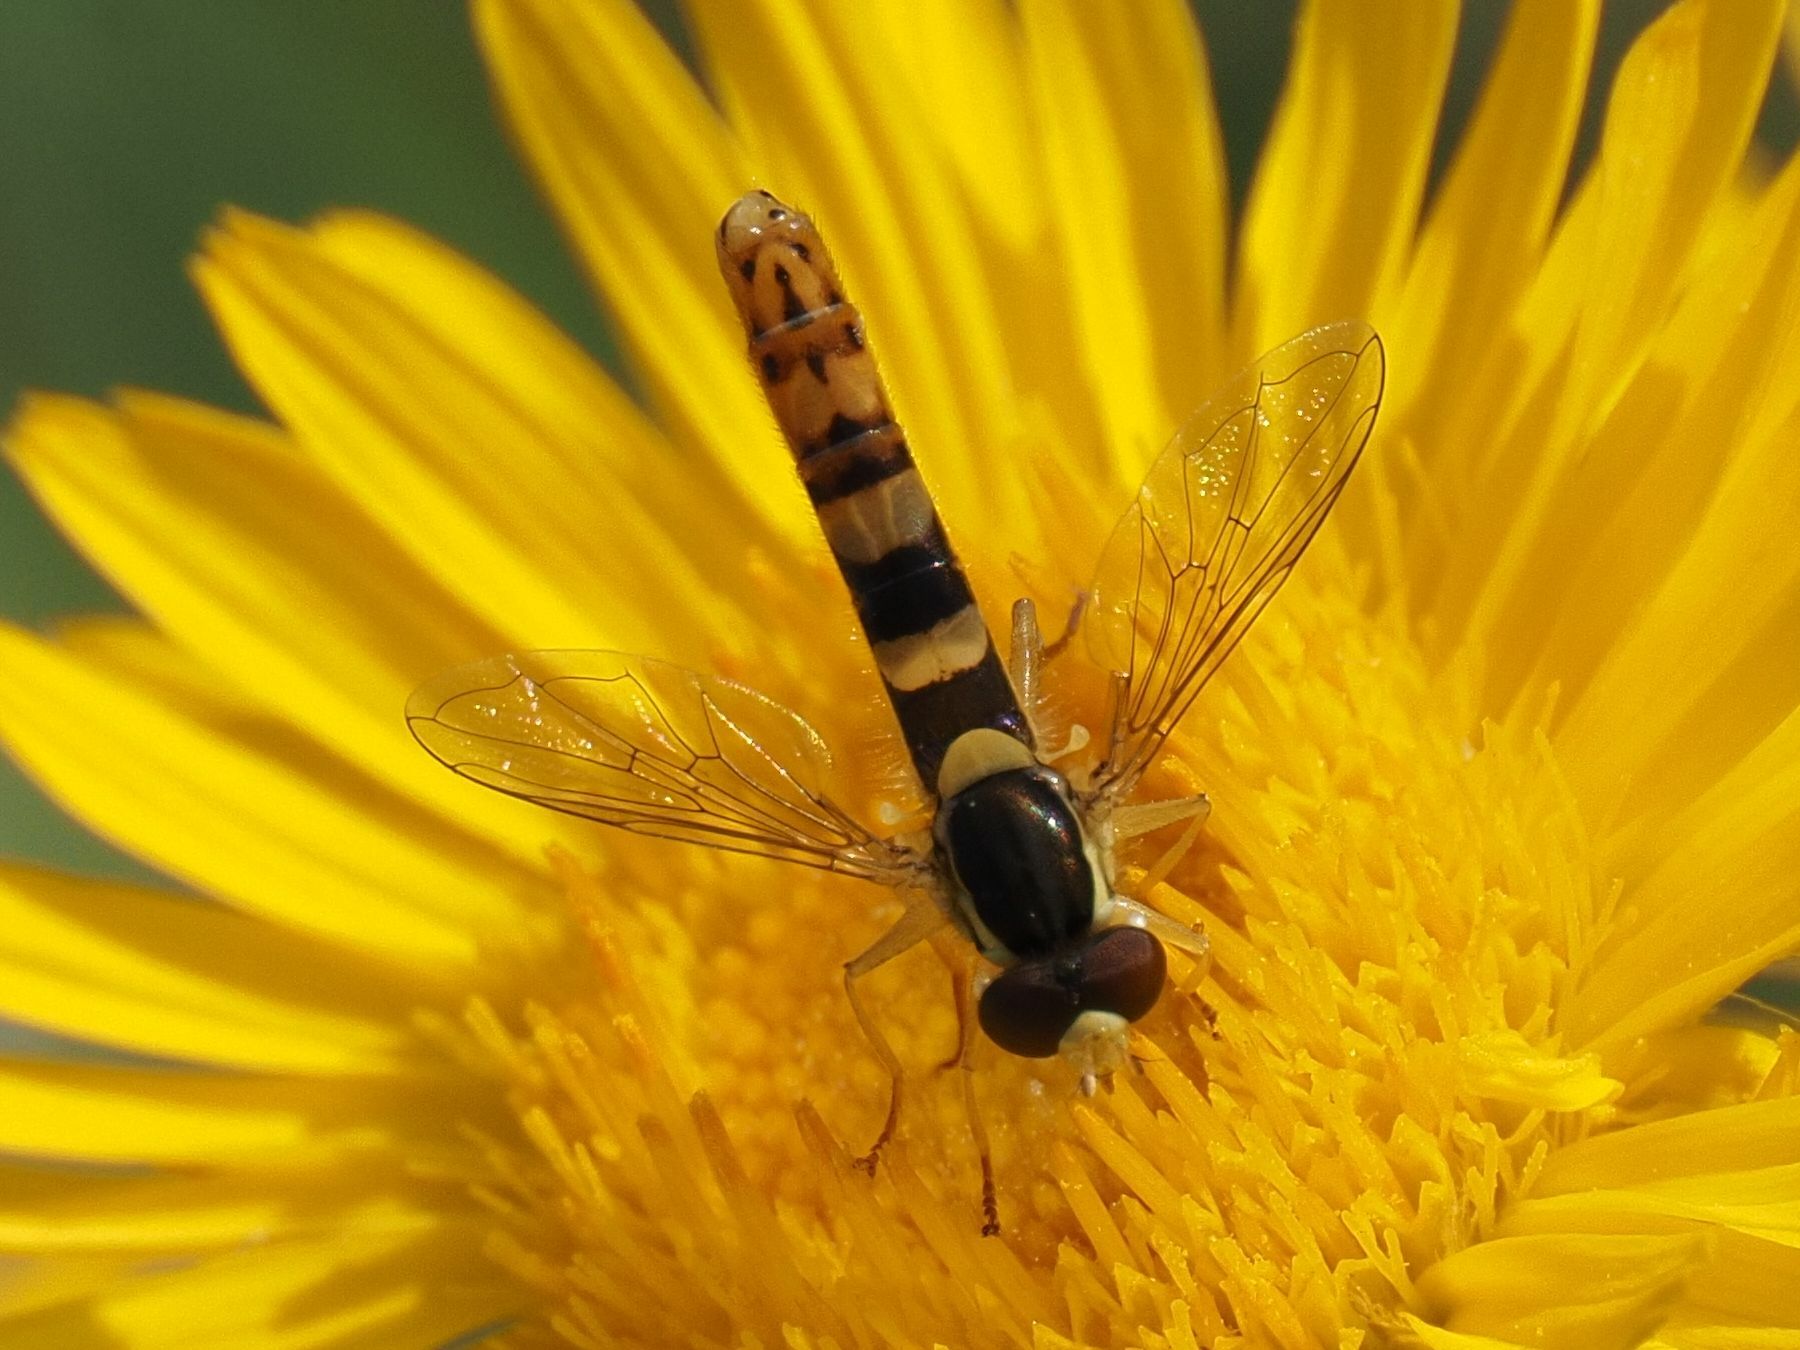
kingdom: Animalia
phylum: Arthropoda
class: Insecta
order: Diptera
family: Syrphidae
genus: Sphaerophoria
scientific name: Sphaerophoria scripta
